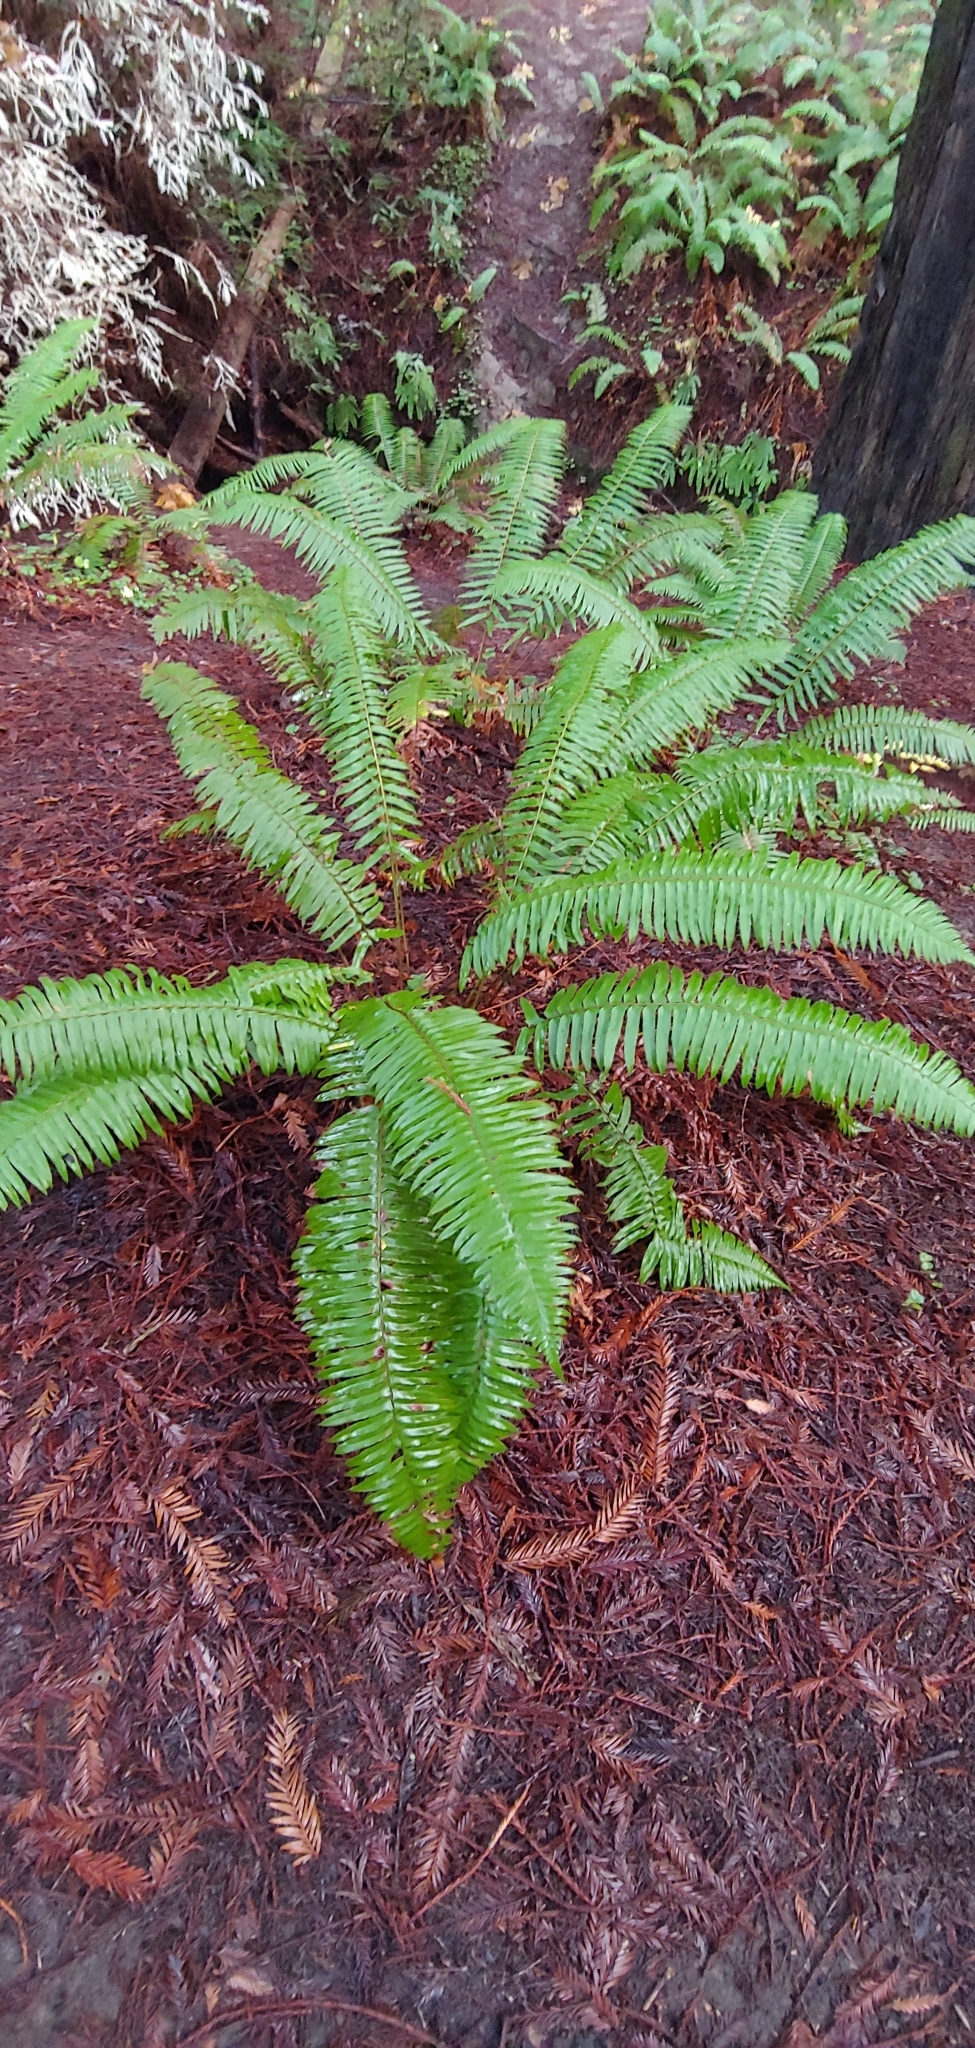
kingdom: Plantae
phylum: Tracheophyta
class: Polypodiopsida
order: Polypodiales
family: Dryopteridaceae
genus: Polystichum
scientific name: Polystichum munitum
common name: Western sword-fern
